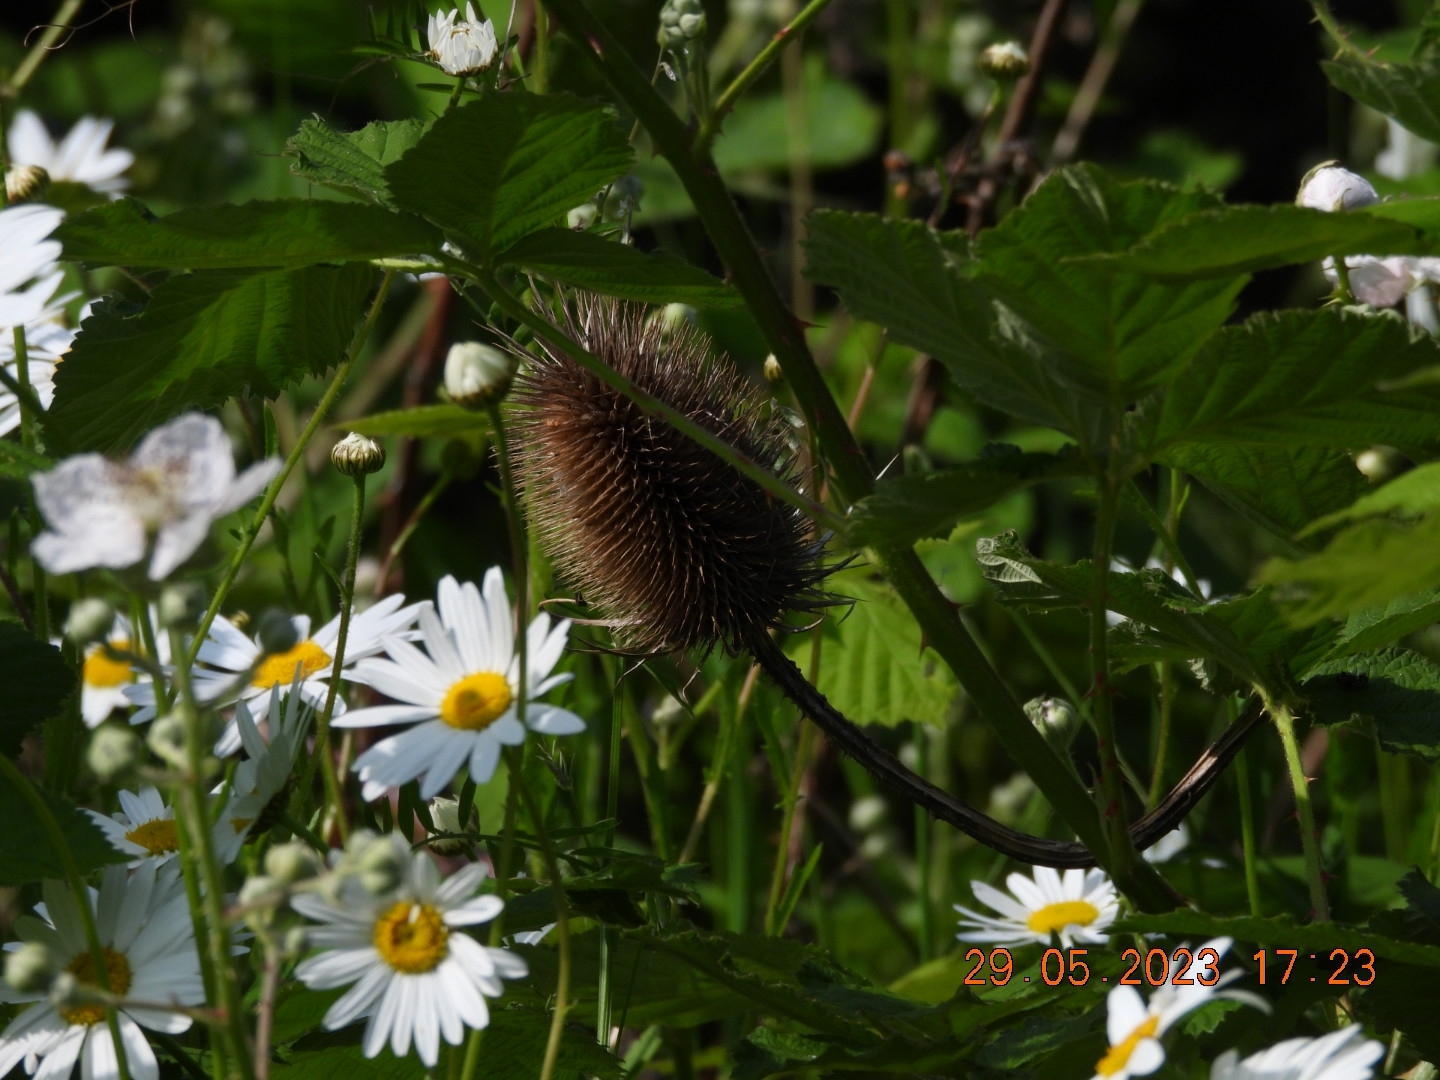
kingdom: Plantae
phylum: Tracheophyta
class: Magnoliopsida
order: Dipsacales
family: Caprifoliaceae
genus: Dipsacus
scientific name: Dipsacus fullonum
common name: Teasel
